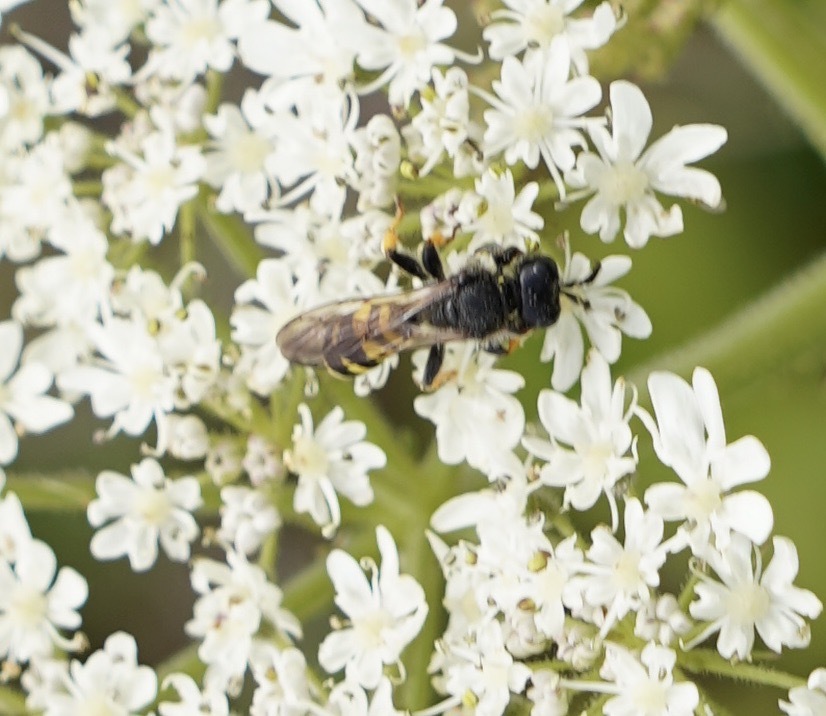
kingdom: Animalia
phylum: Arthropoda
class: Insecta
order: Hymenoptera
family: Crabronidae
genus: Crabro
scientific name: Crabro cribrarius
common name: Slender bodied digger wasp
